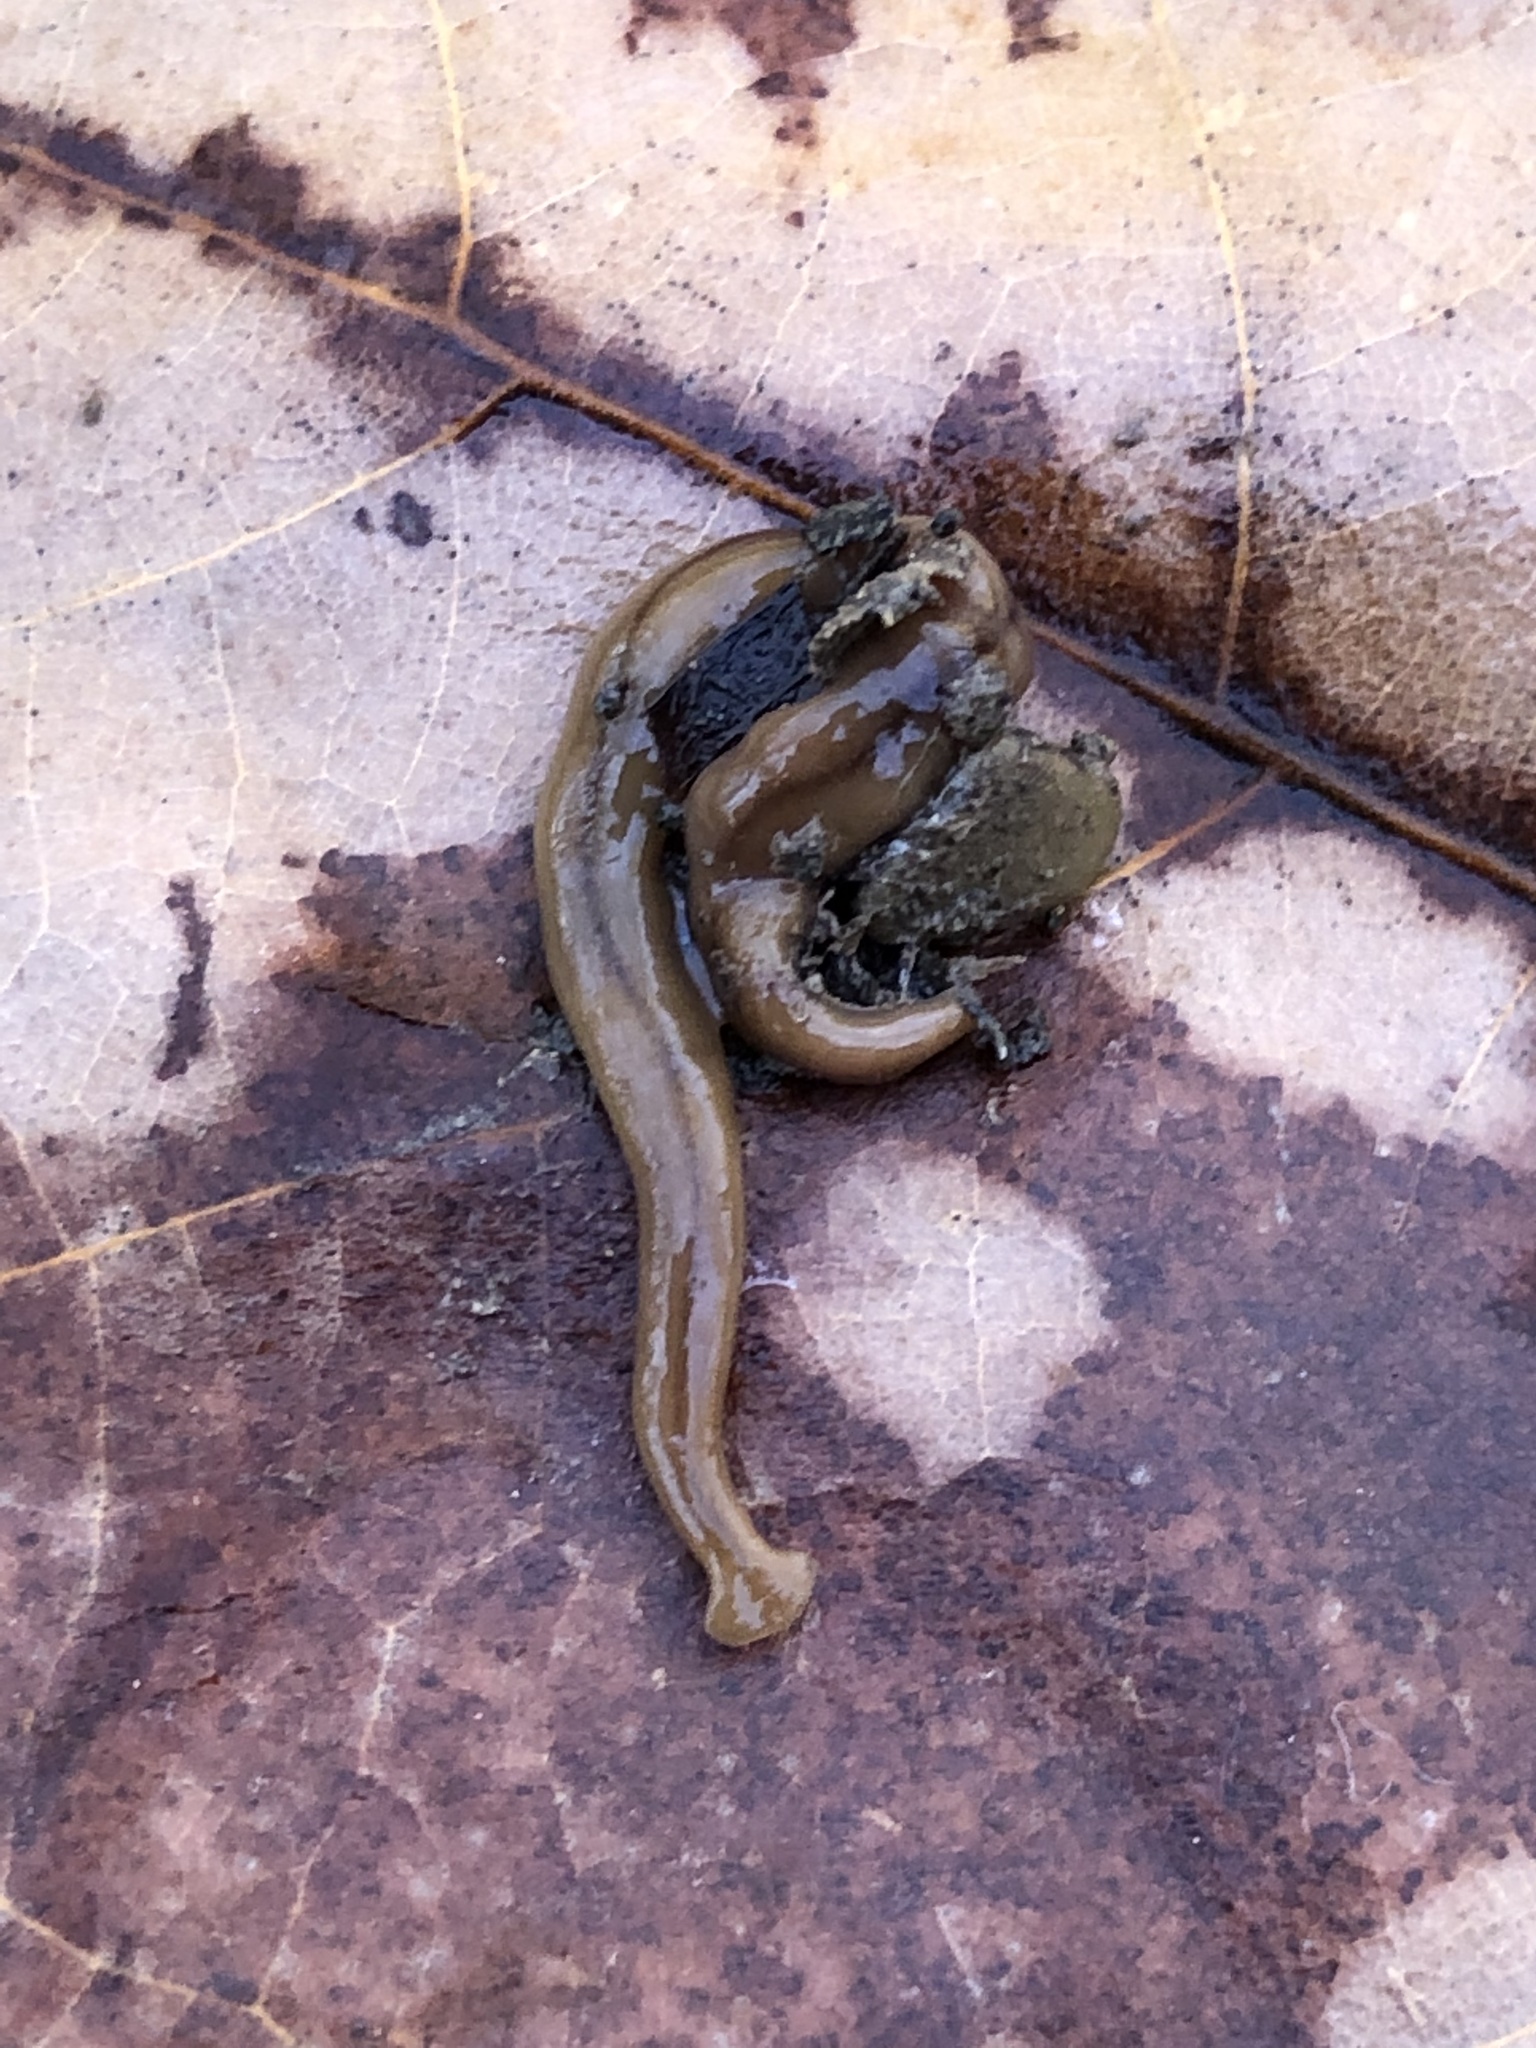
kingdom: Animalia
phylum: Platyhelminthes
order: Tricladida
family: Geoplanidae
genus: Bipalium
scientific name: Bipalium adventitium
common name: Land planarian
